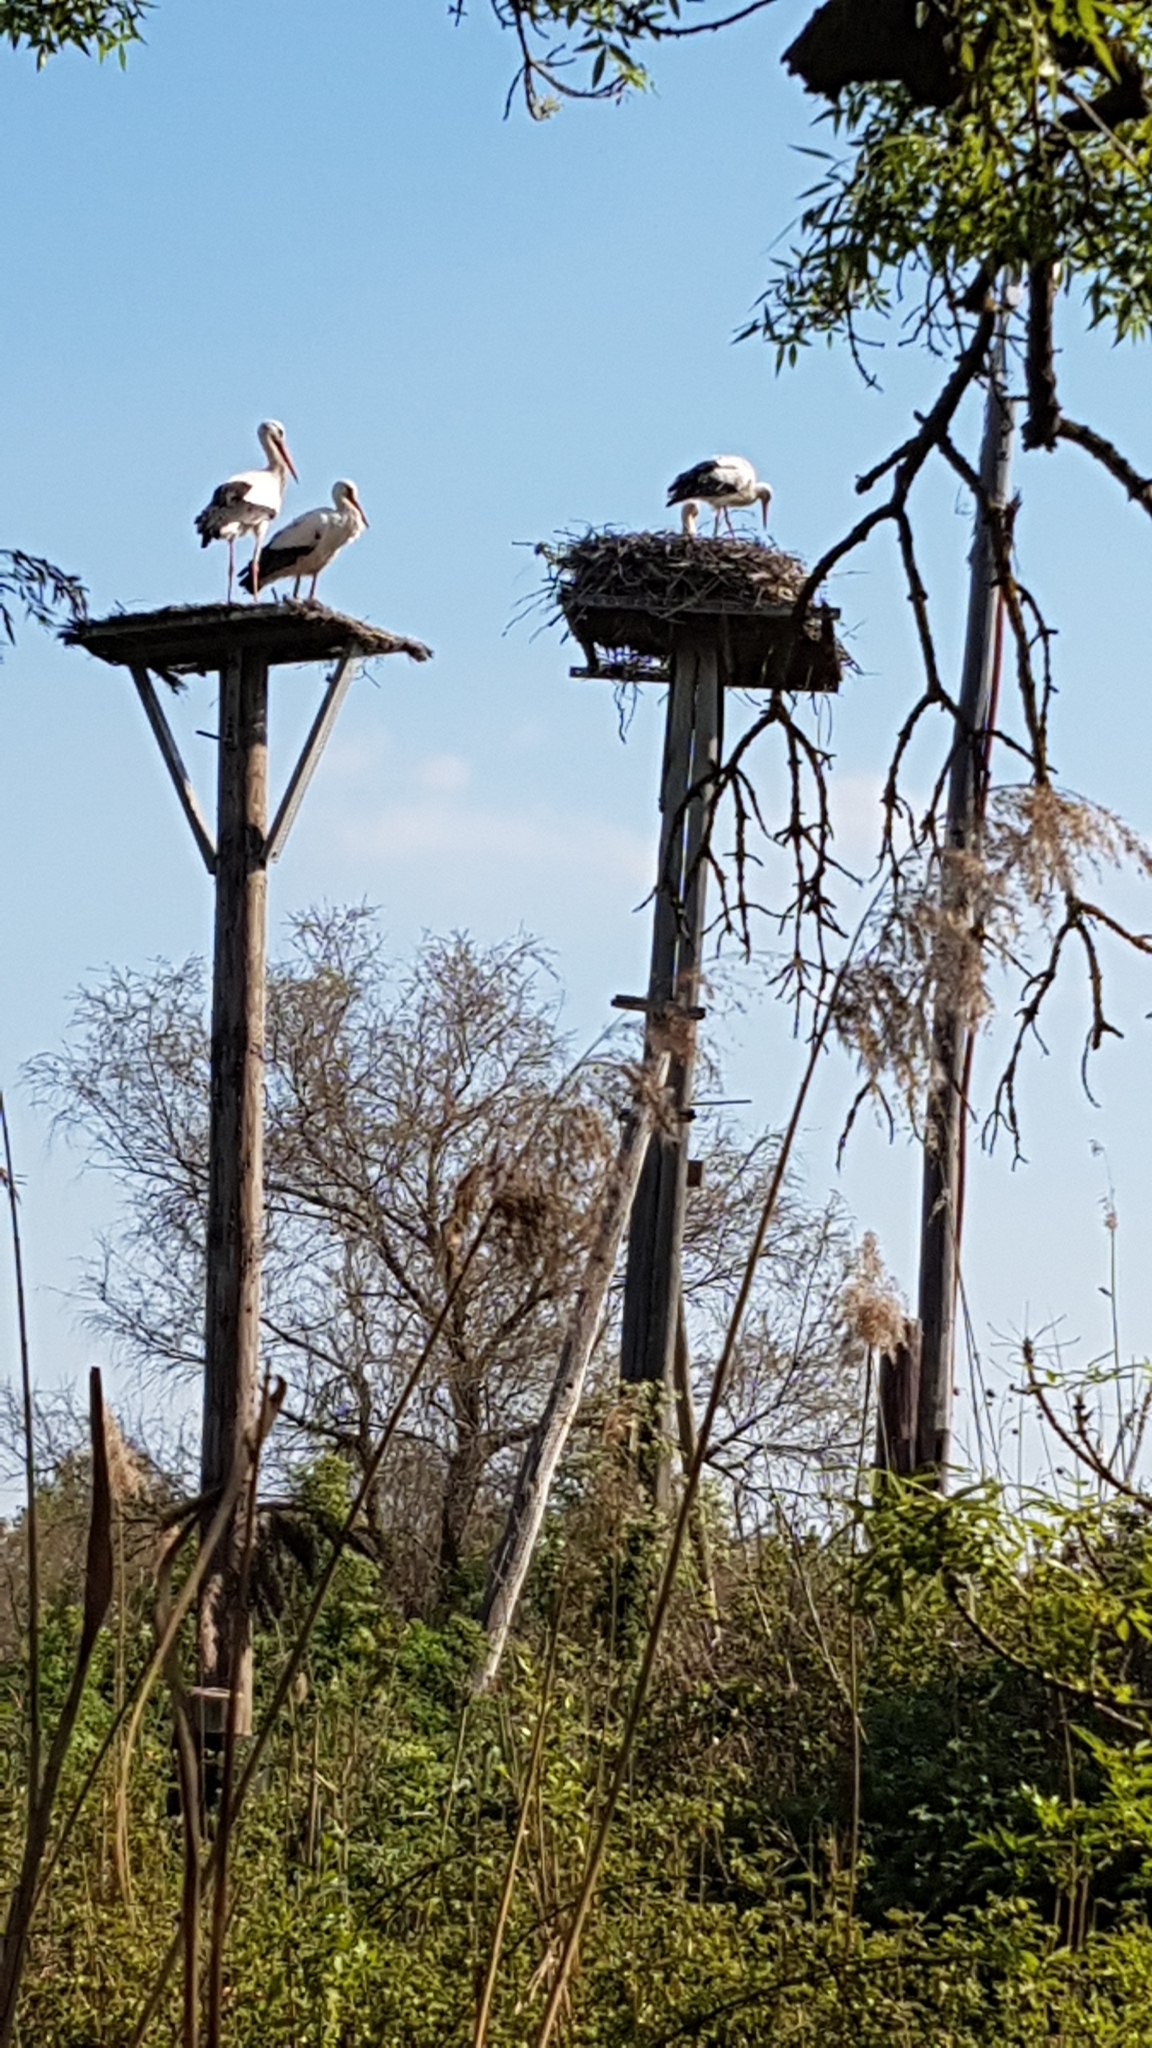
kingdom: Animalia
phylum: Chordata
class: Aves
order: Ciconiiformes
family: Ciconiidae
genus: Ciconia
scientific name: Ciconia ciconia
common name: White stork
